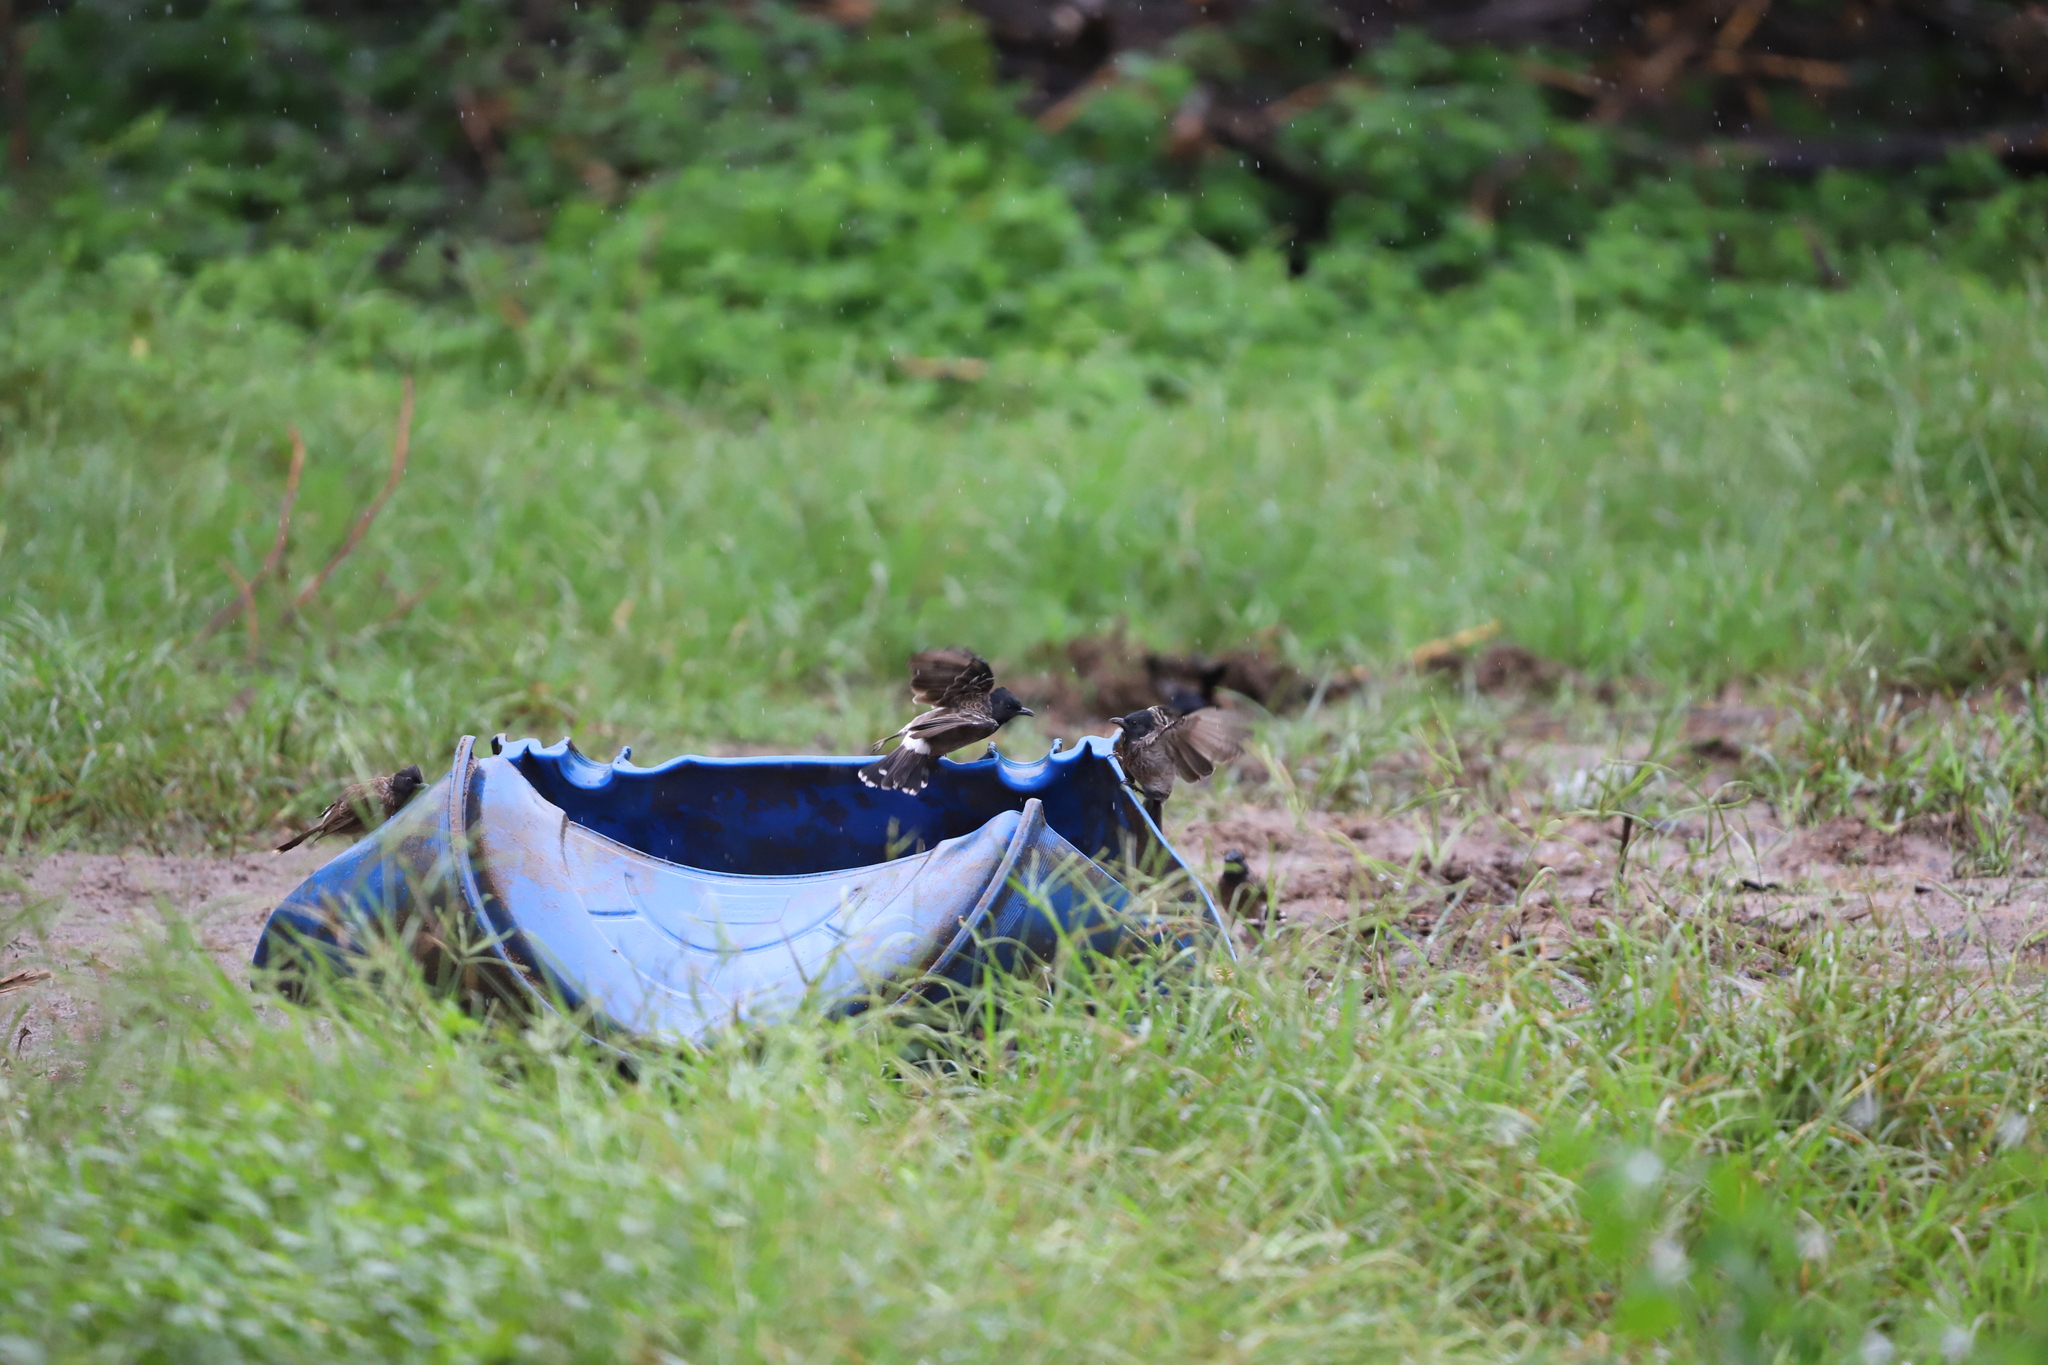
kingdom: Animalia
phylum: Chordata
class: Aves
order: Passeriformes
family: Pycnonotidae
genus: Pycnonotus
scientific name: Pycnonotus cafer
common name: Red-vented bulbul
